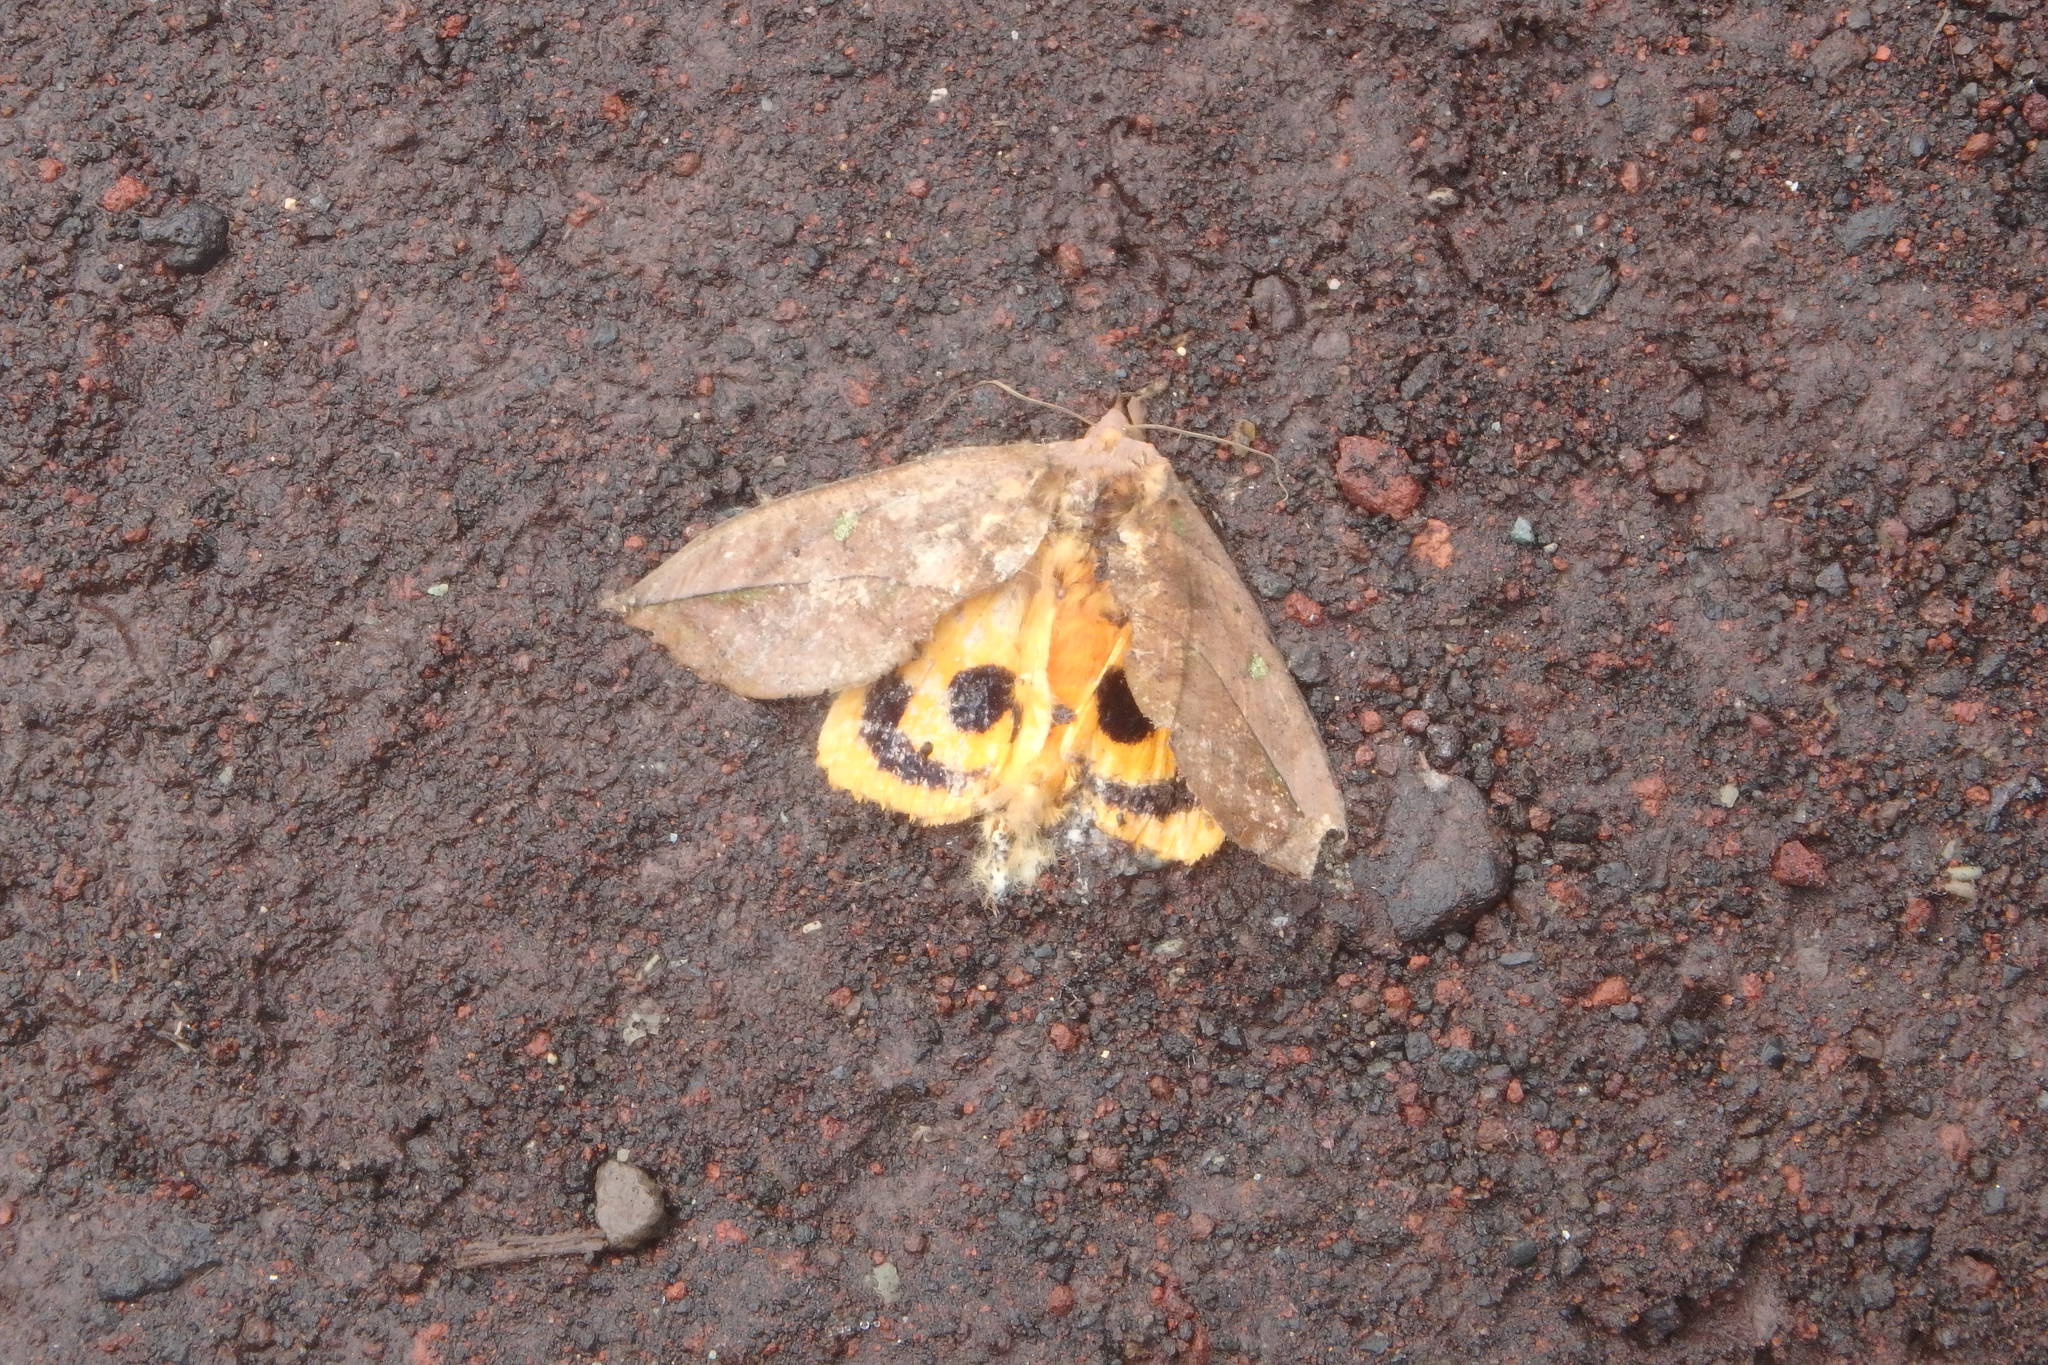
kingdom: Animalia
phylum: Arthropoda
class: Insecta
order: Lepidoptera
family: Erebidae
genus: Eudocima
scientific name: Eudocima tyrannus
